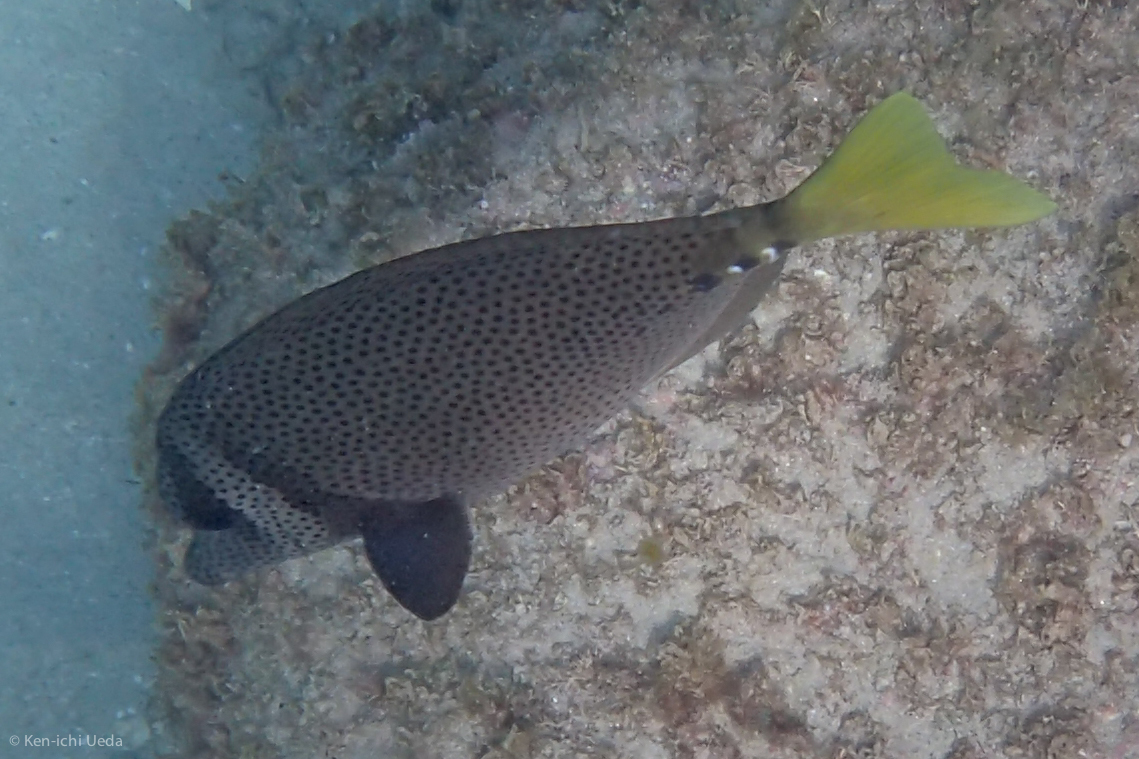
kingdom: Animalia
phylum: Chordata
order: Perciformes
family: Acanthuridae
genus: Prionurus
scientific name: Prionurus laticlavius
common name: Razor surgeonfish
